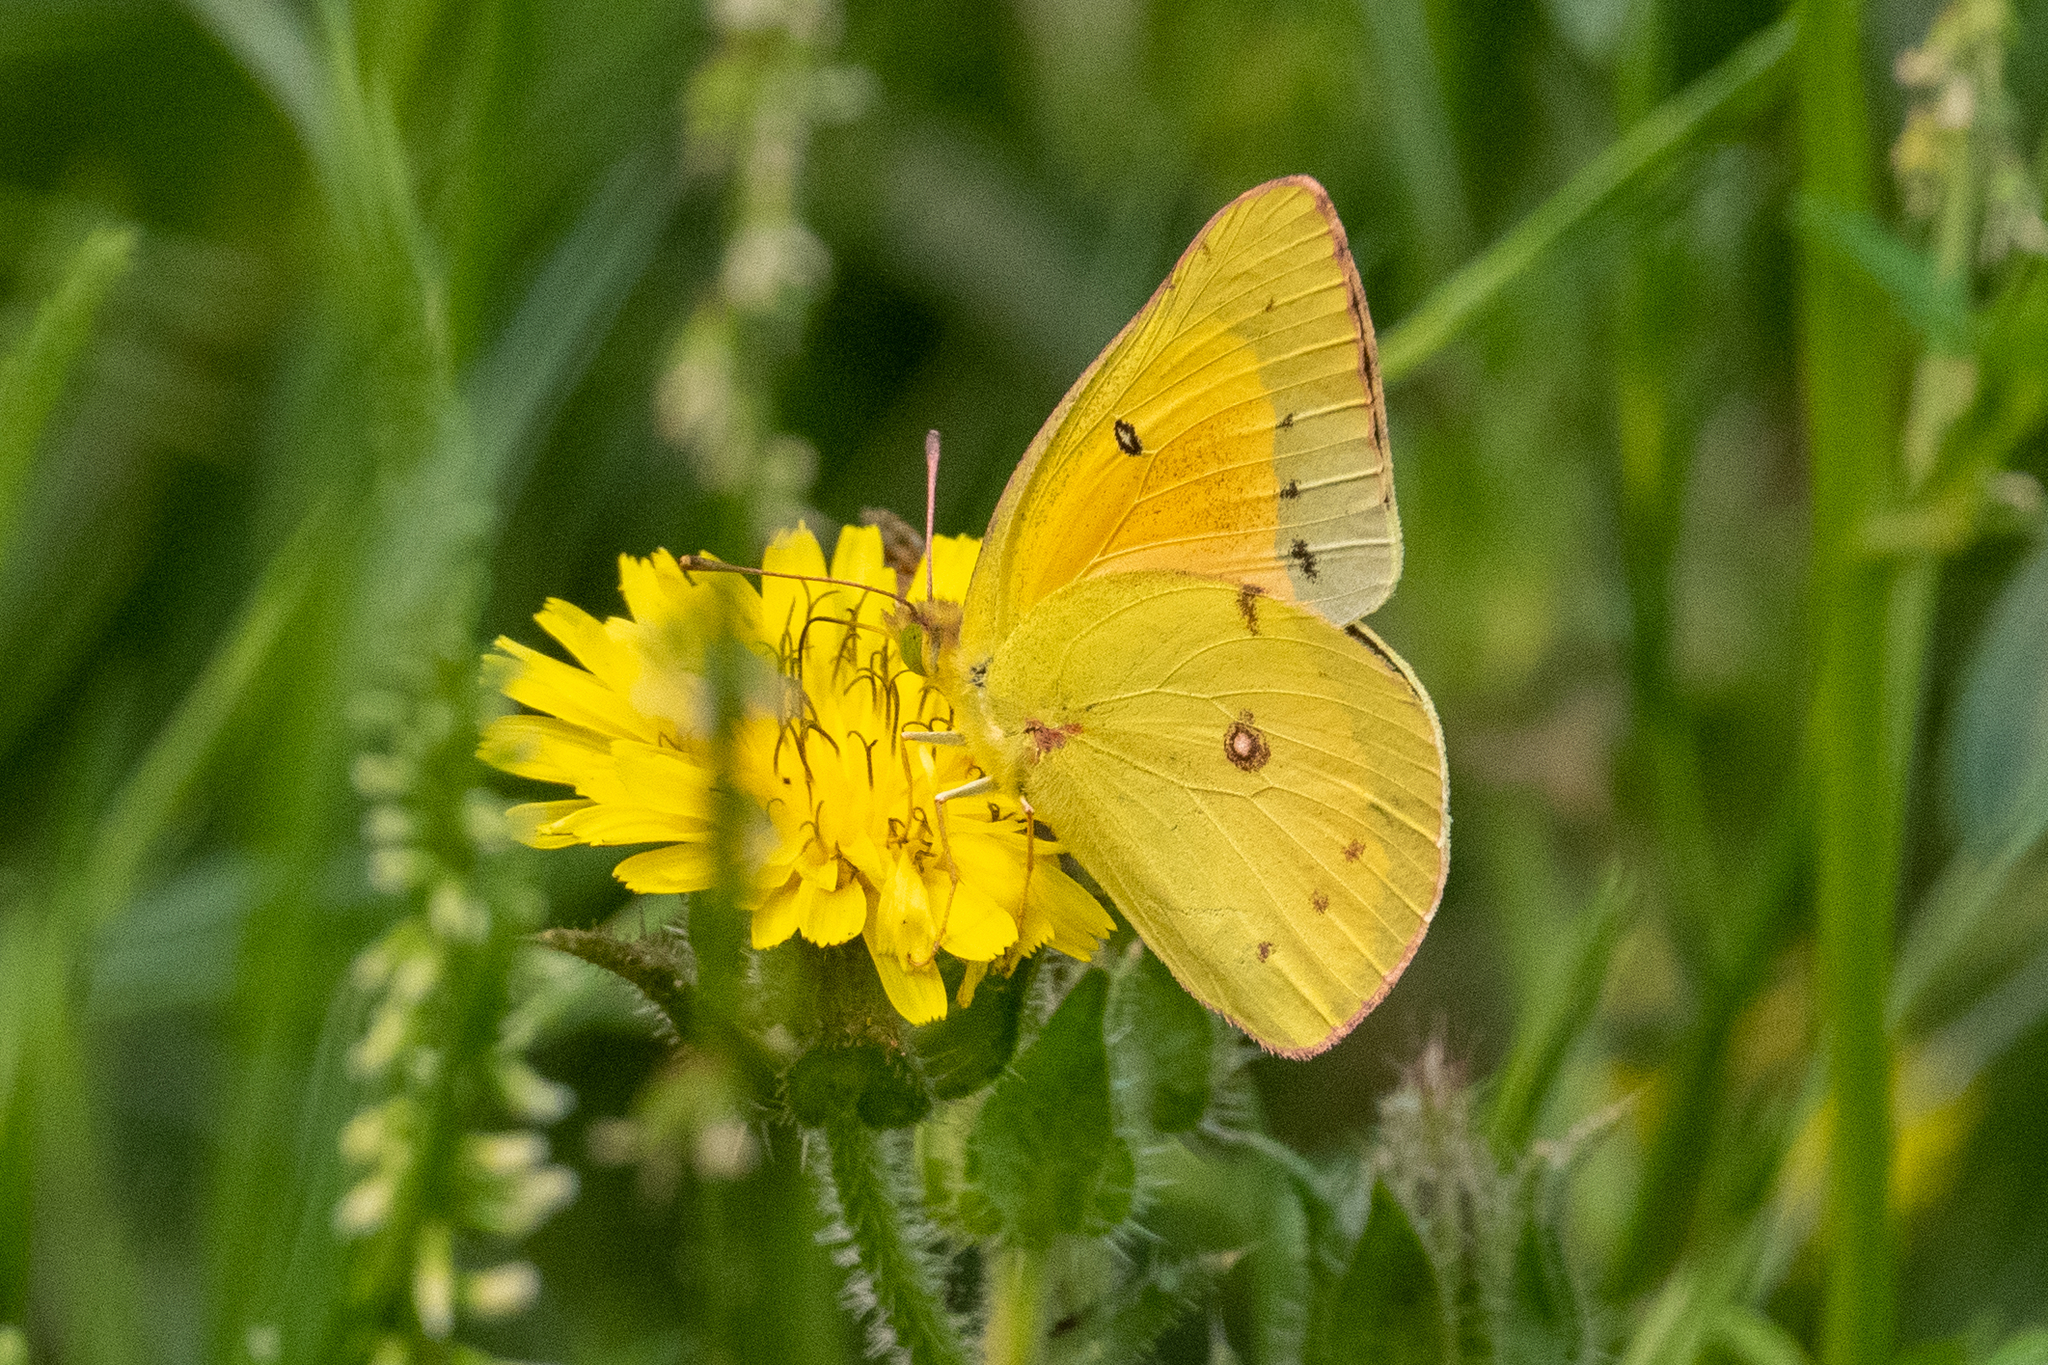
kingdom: Animalia
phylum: Arthropoda
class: Insecta
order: Lepidoptera
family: Pieridae
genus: Colias
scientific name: Colias eurytheme
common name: Alfalfa butterfly
